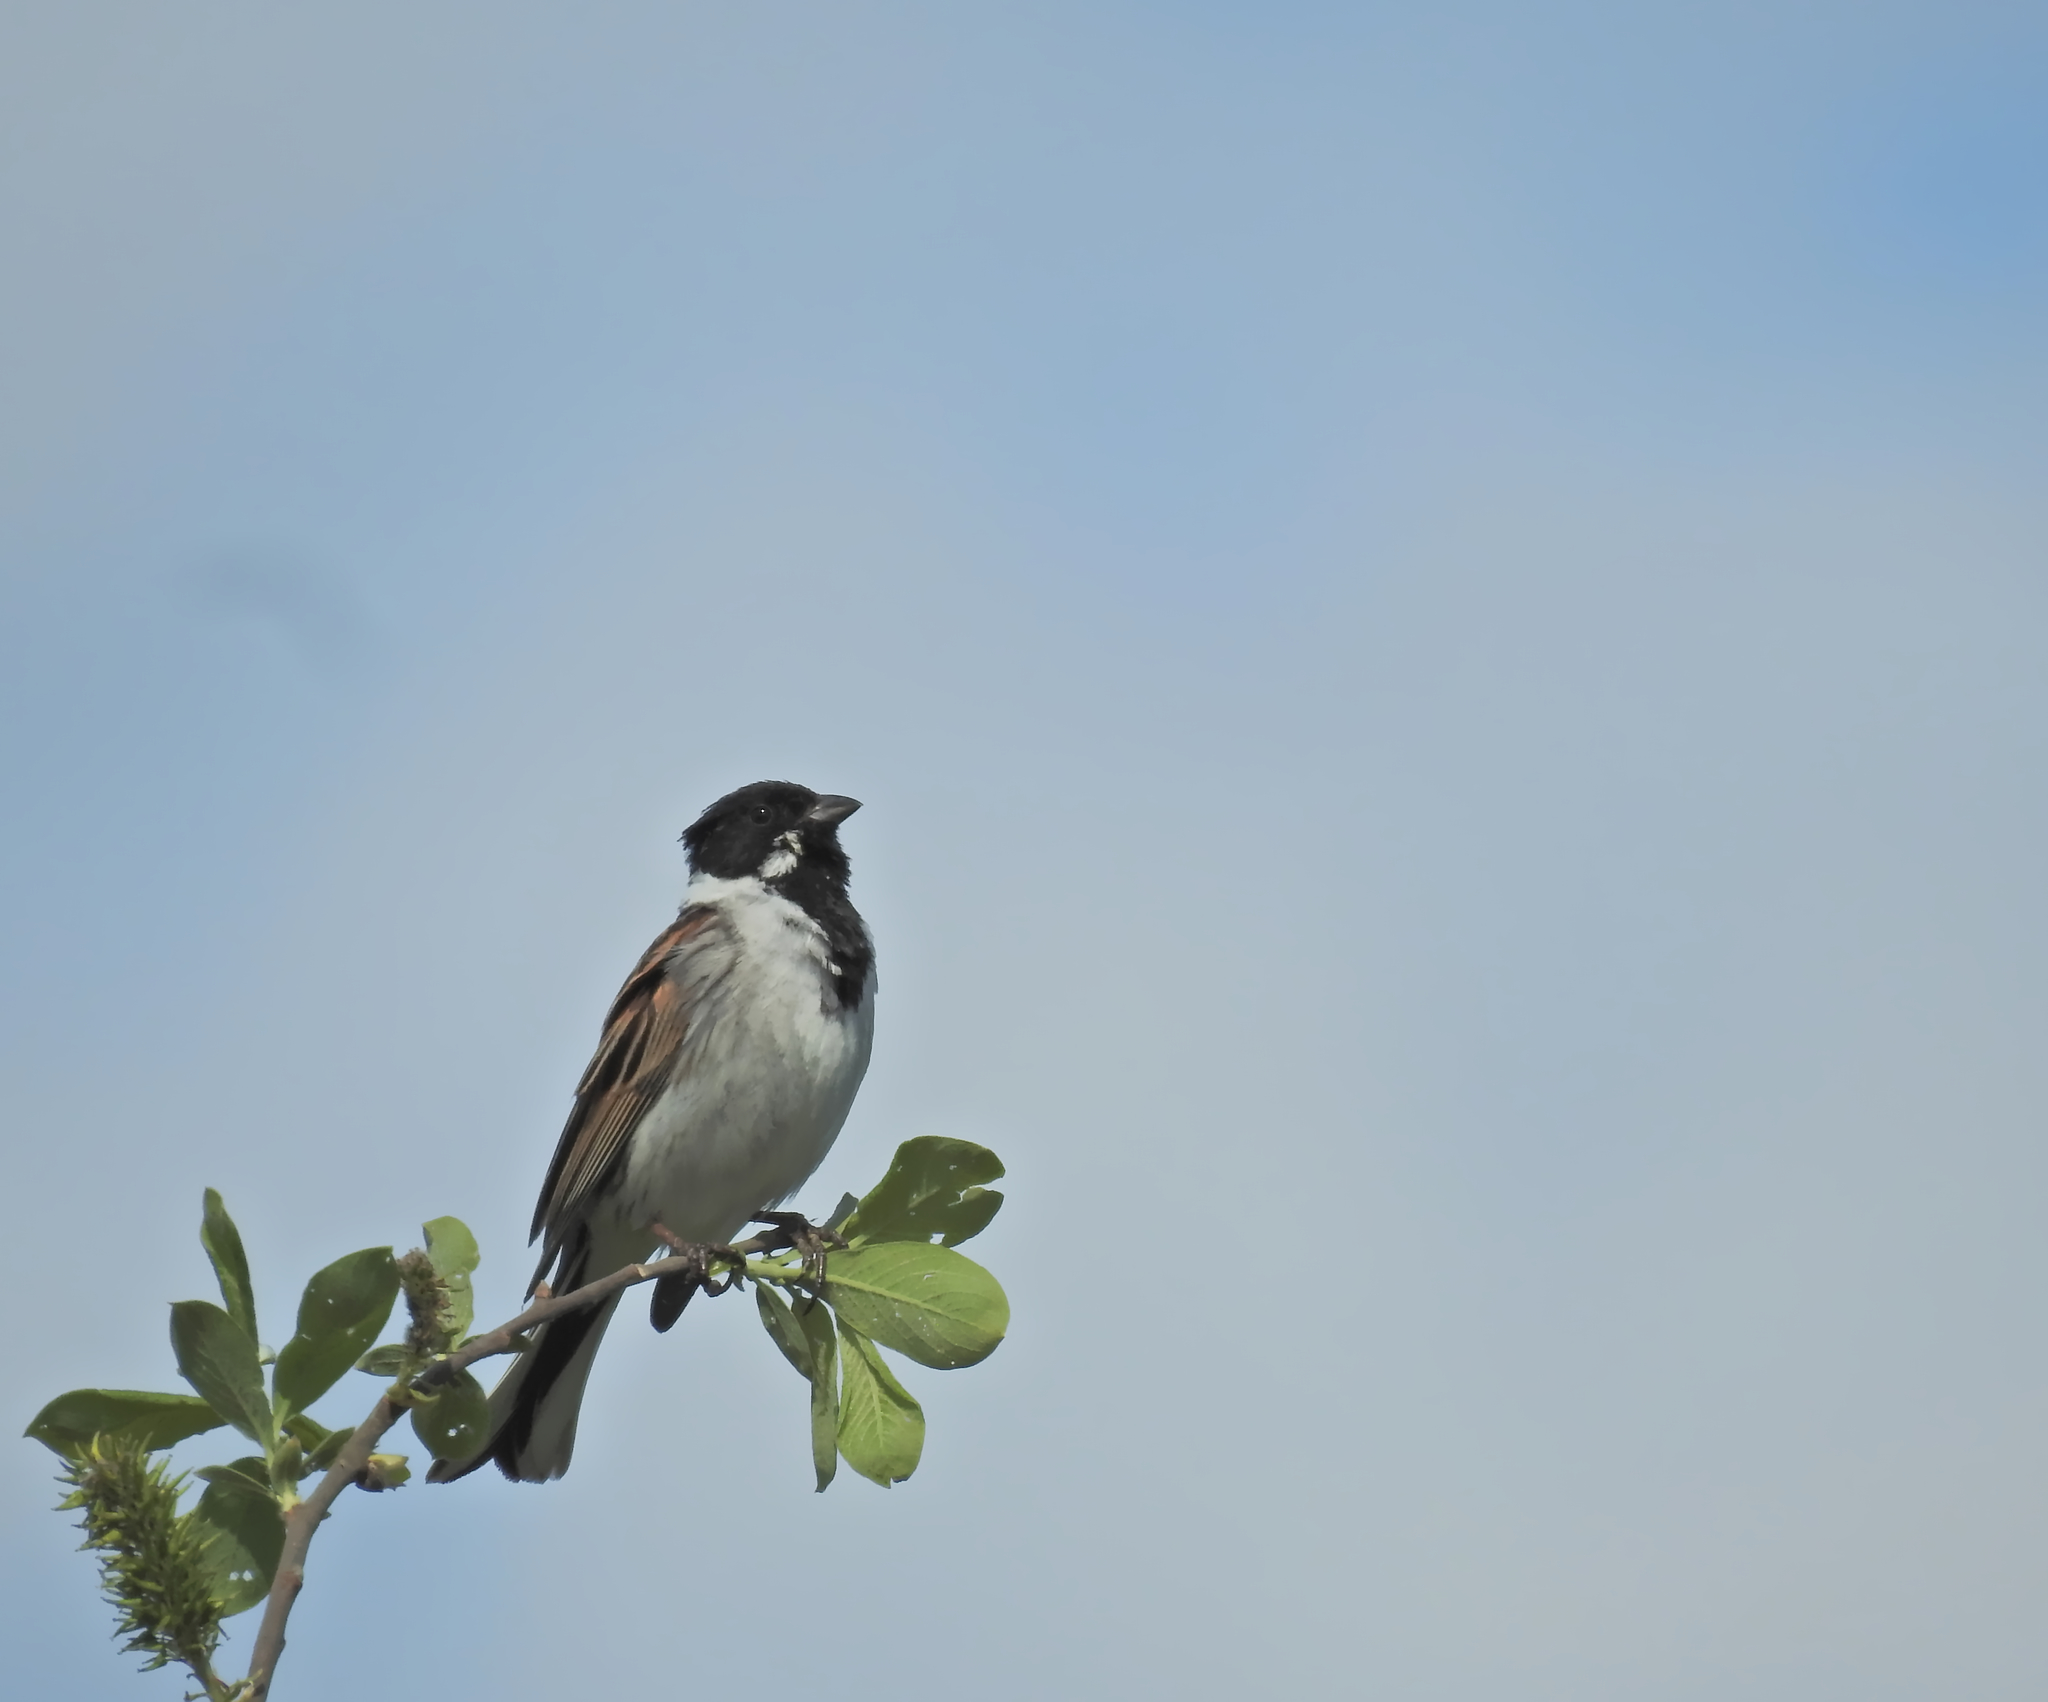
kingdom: Animalia
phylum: Chordata
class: Aves
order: Passeriformes
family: Emberizidae
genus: Emberiza
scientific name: Emberiza schoeniclus
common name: Reed bunting
